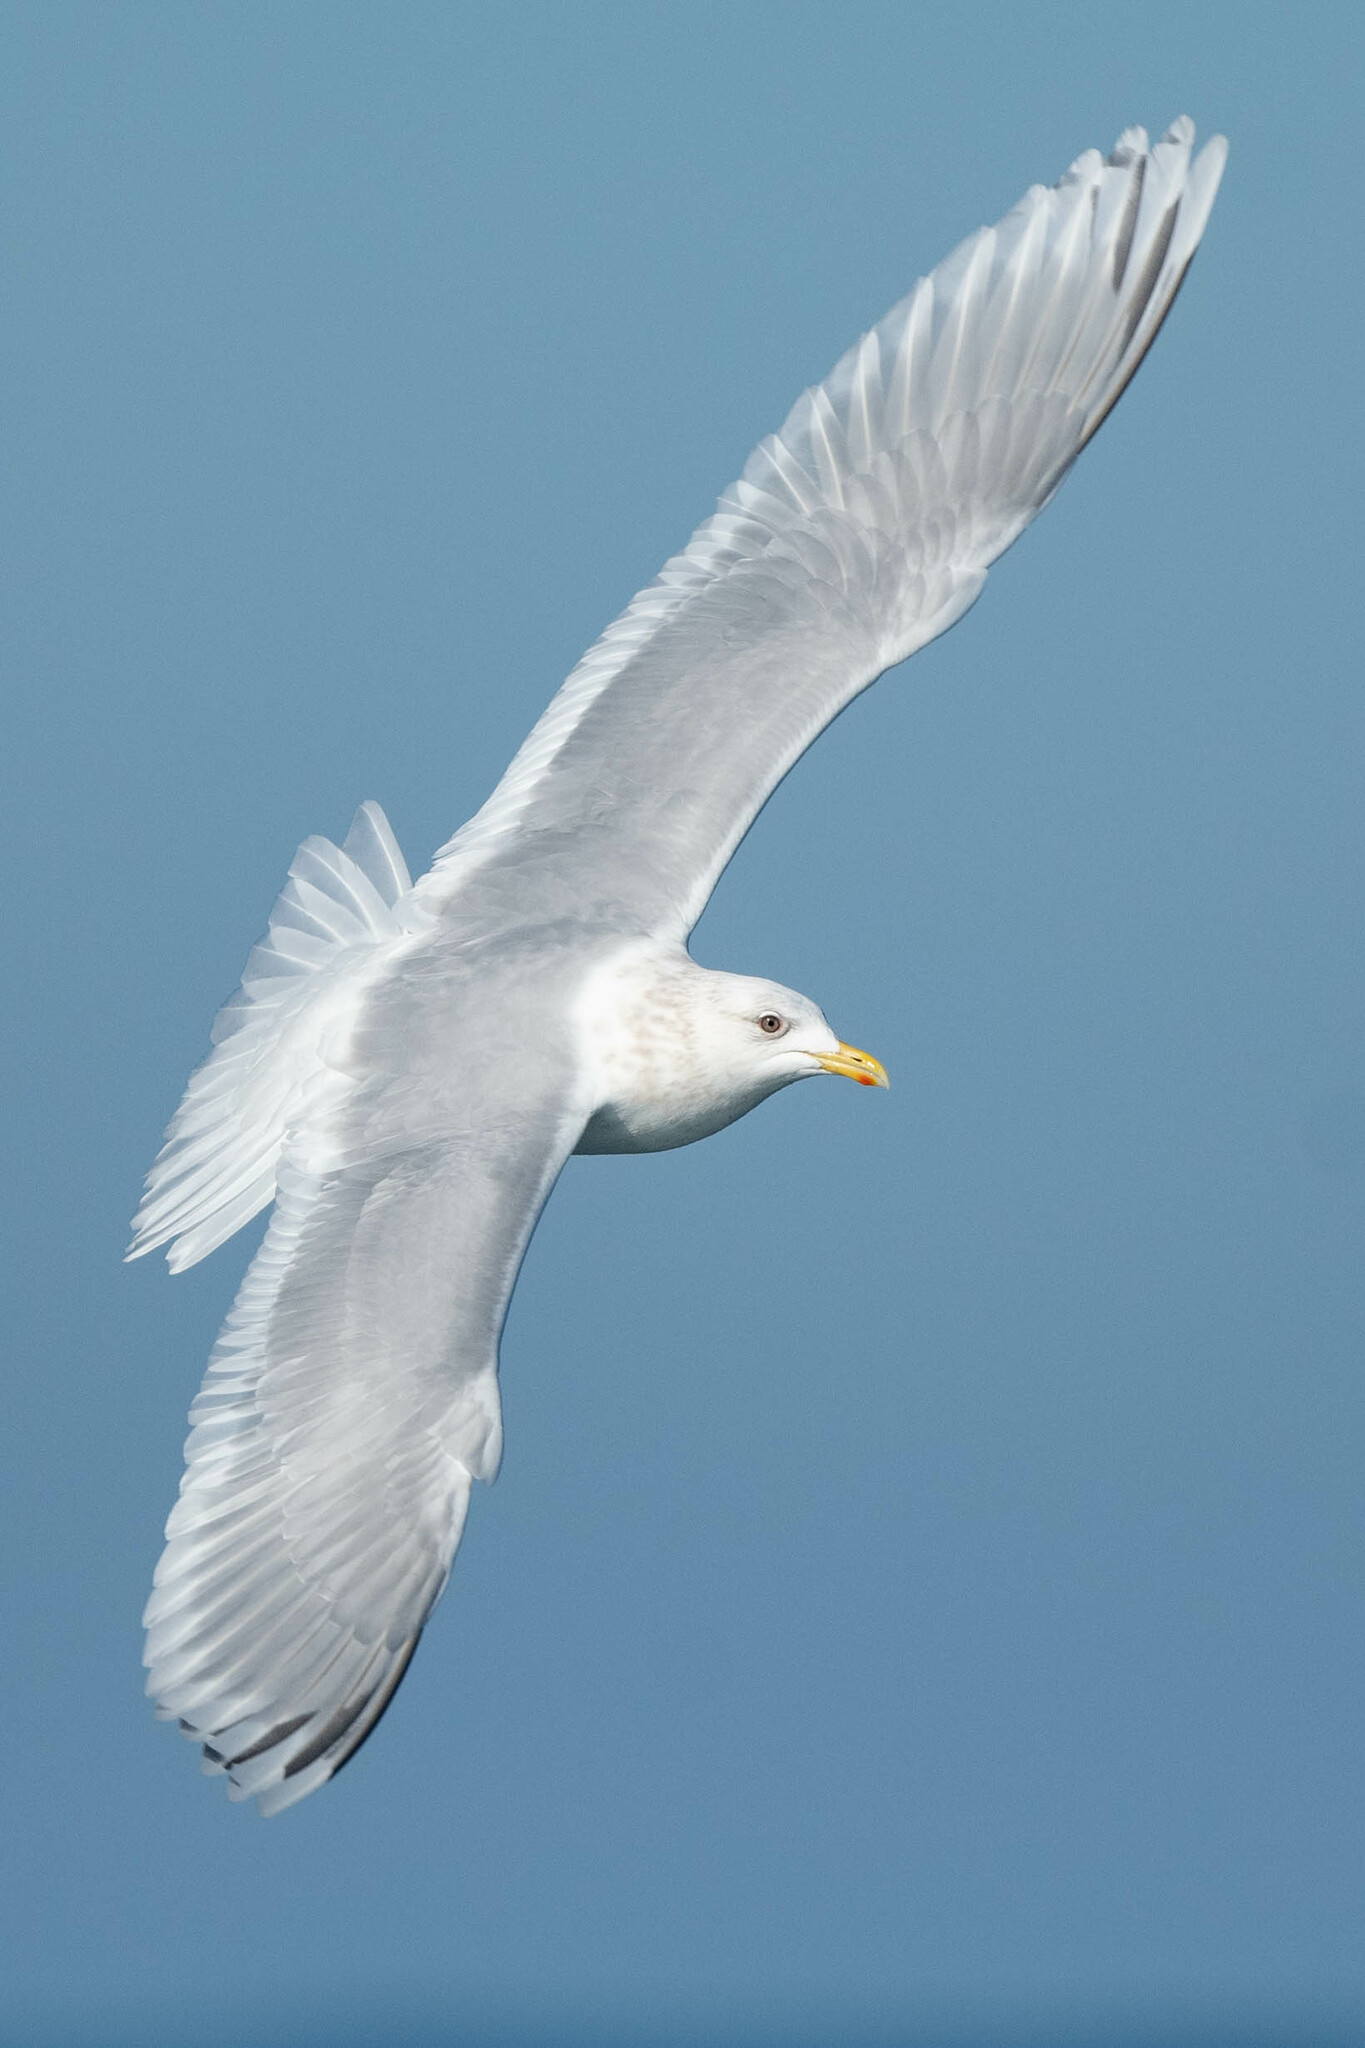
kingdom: Animalia
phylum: Chordata
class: Aves
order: Charadriiformes
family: Laridae
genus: Larus
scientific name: Larus glaucoides
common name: Iceland gull
